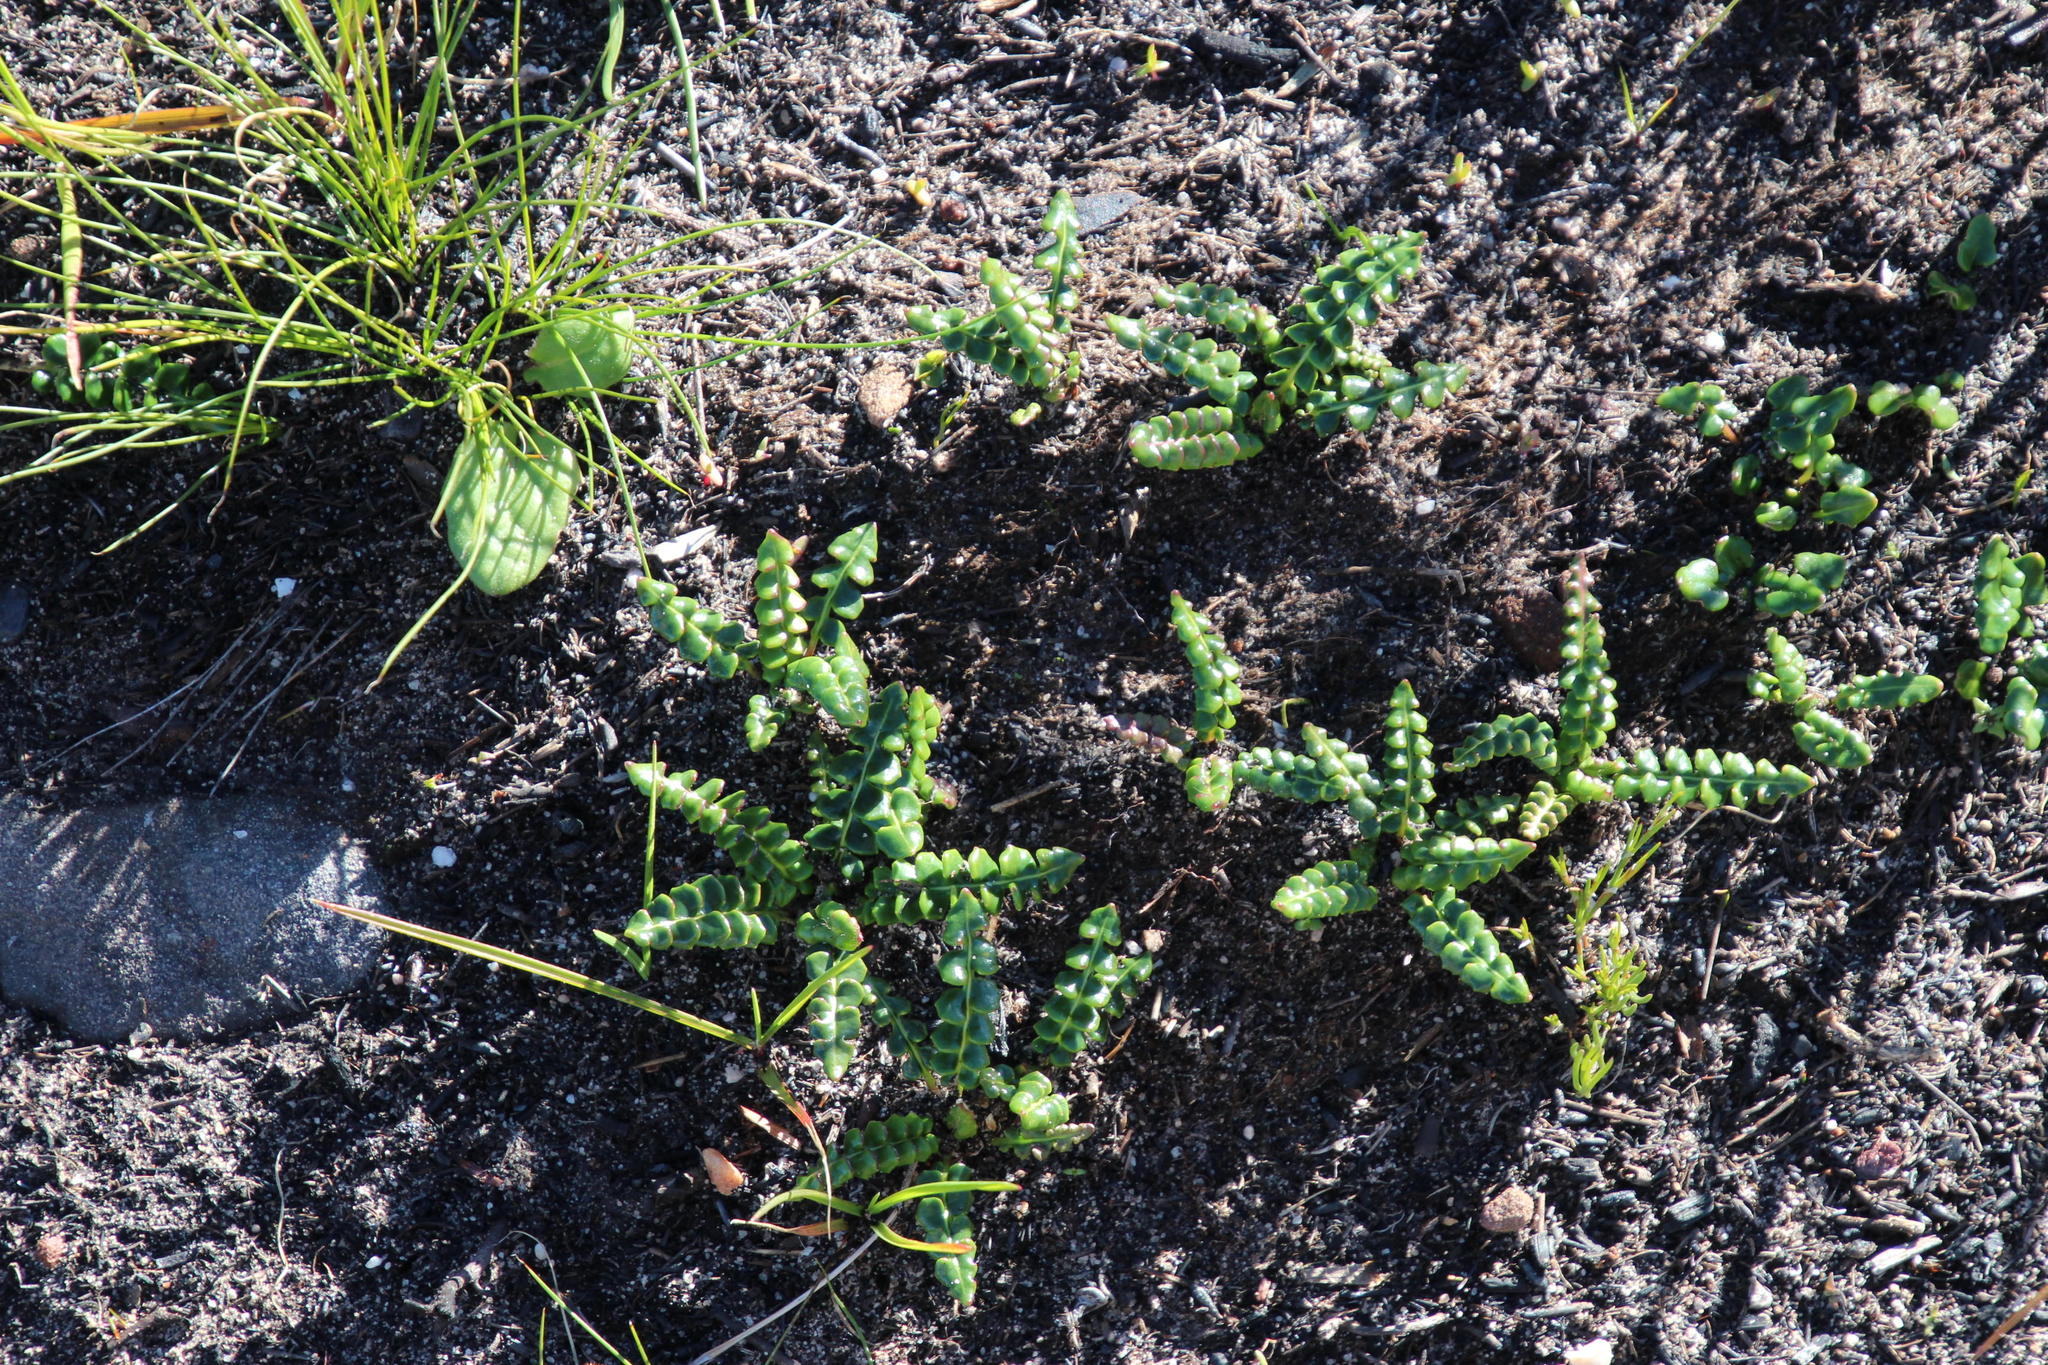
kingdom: Plantae
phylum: Tracheophyta
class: Magnoliopsida
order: Asterales
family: Asteraceae
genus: Gerbera
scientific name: Gerbera linnaei
